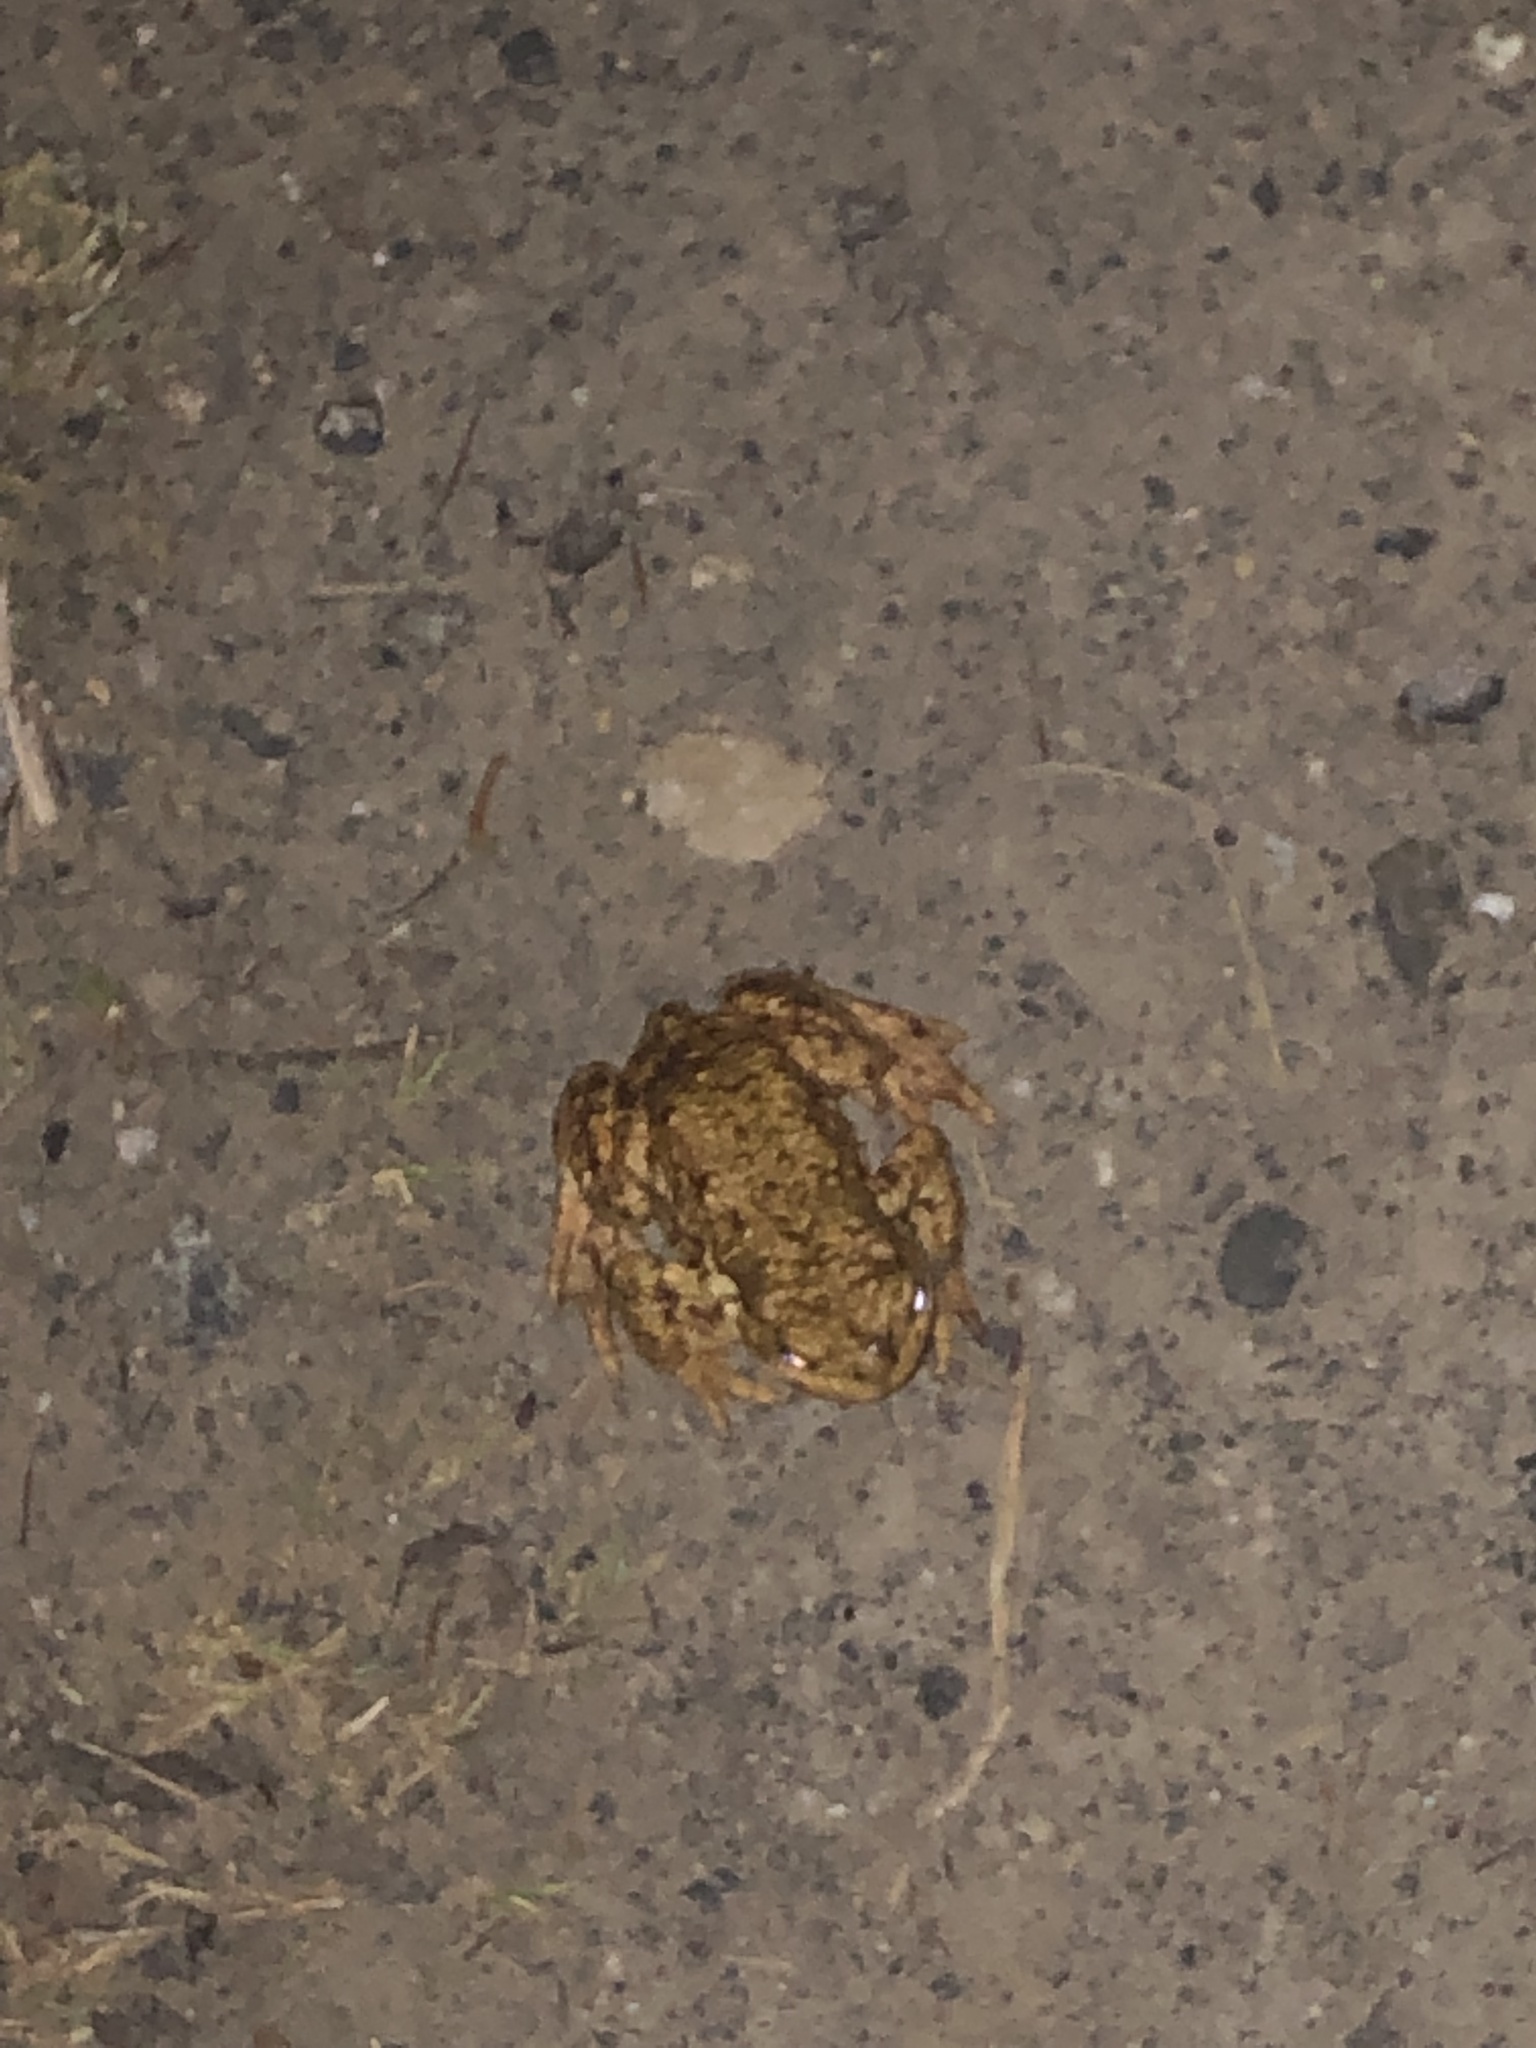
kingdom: Animalia
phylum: Chordata
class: Amphibia
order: Anura
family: Bufonidae
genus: Bufo
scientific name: Bufo bufo
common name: Common toad
